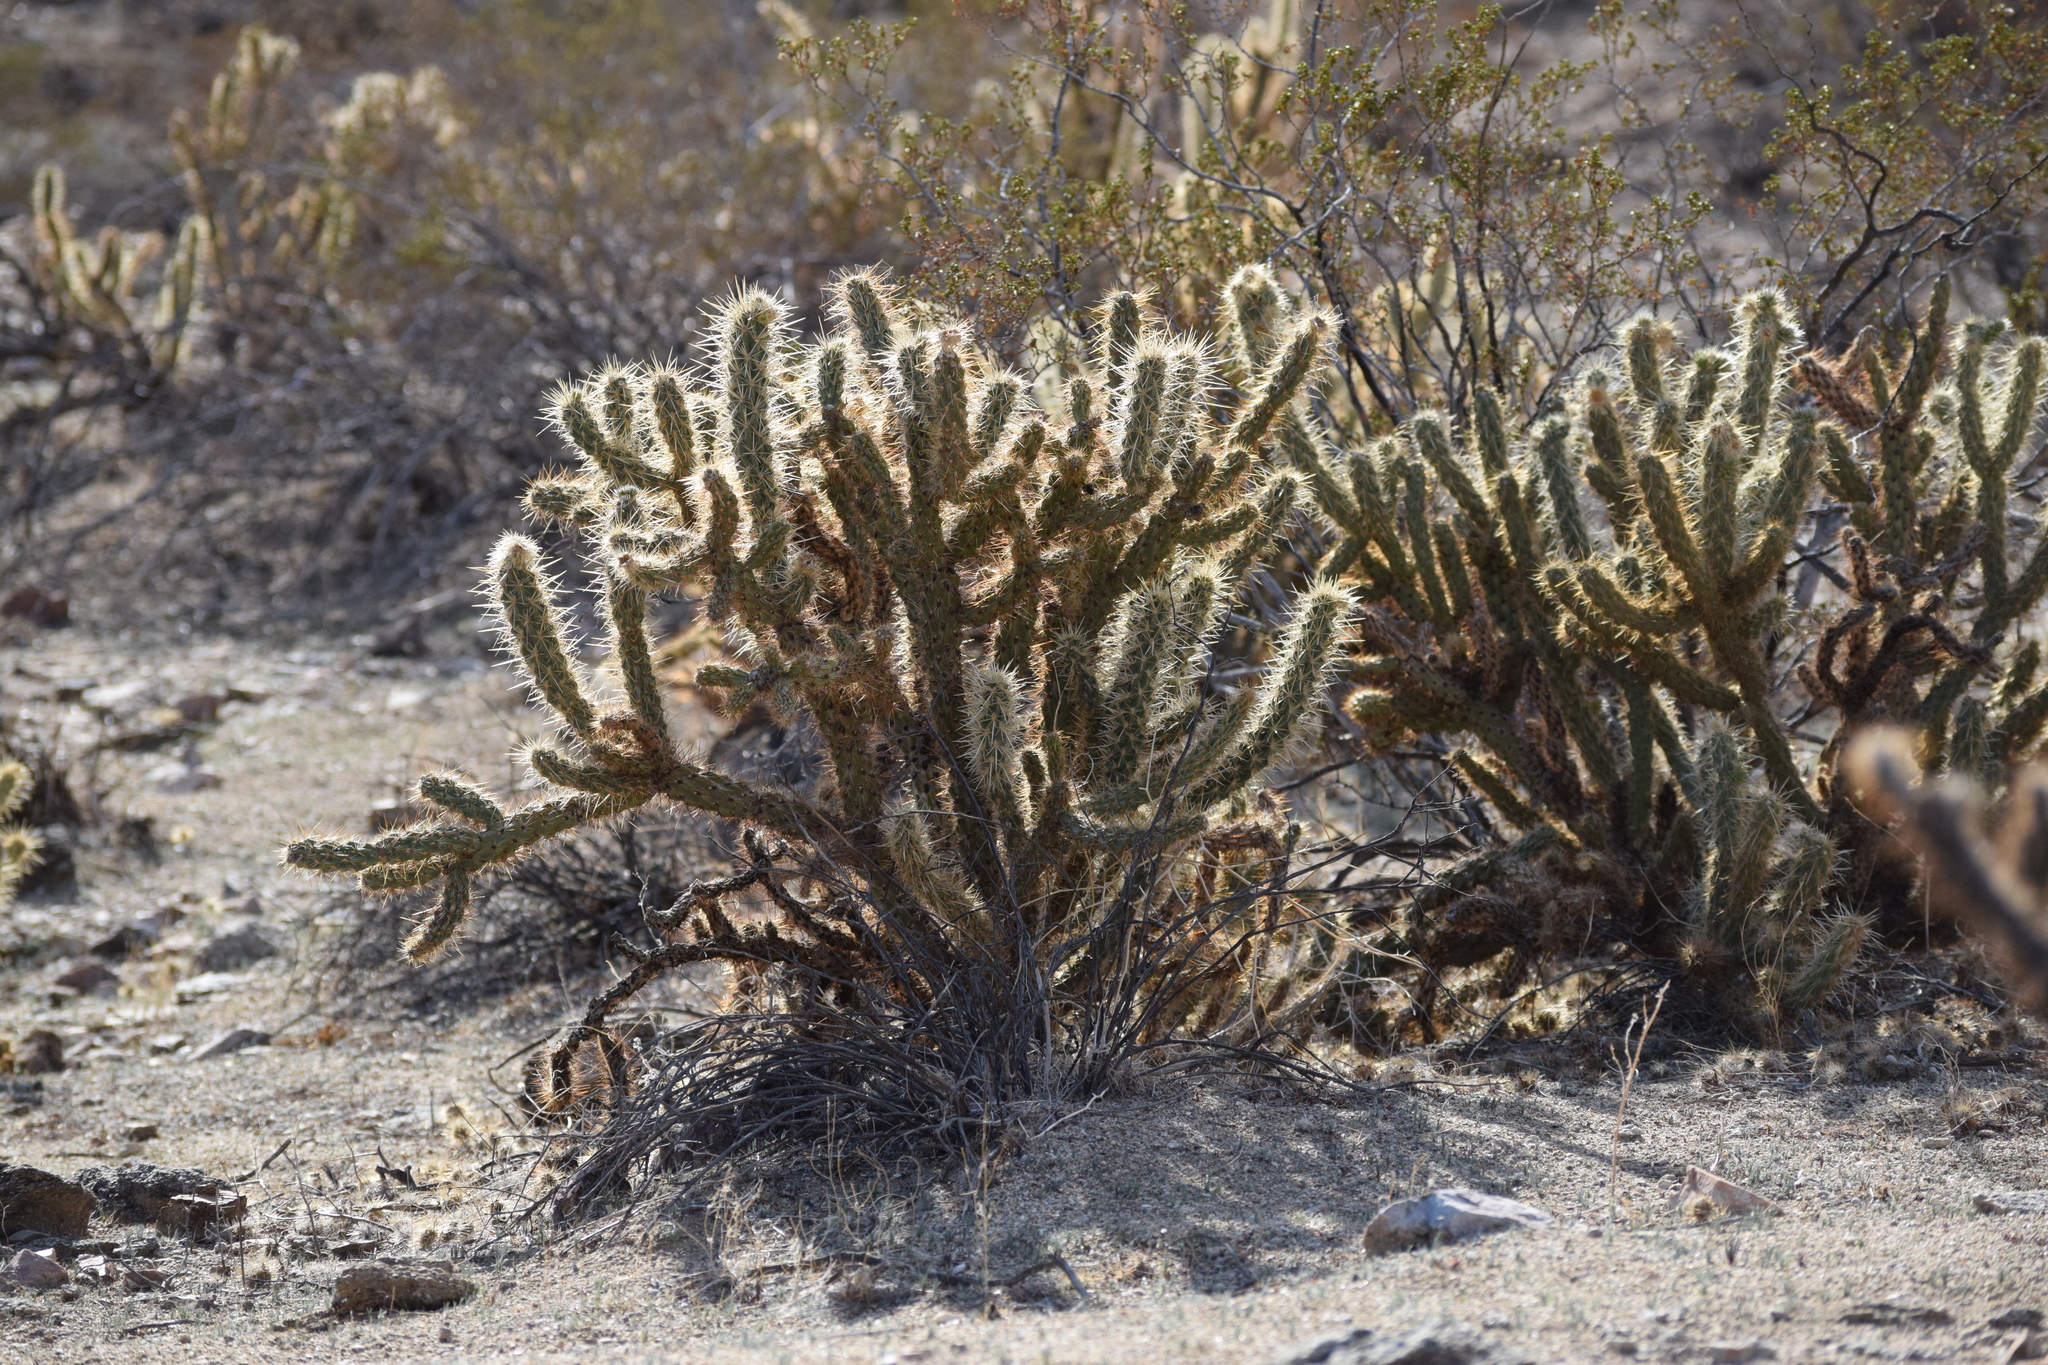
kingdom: Plantae
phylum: Tracheophyta
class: Magnoliopsida
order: Caryophyllales
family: Cactaceae
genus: Cylindropuntia
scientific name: Cylindropuntia ganderi
